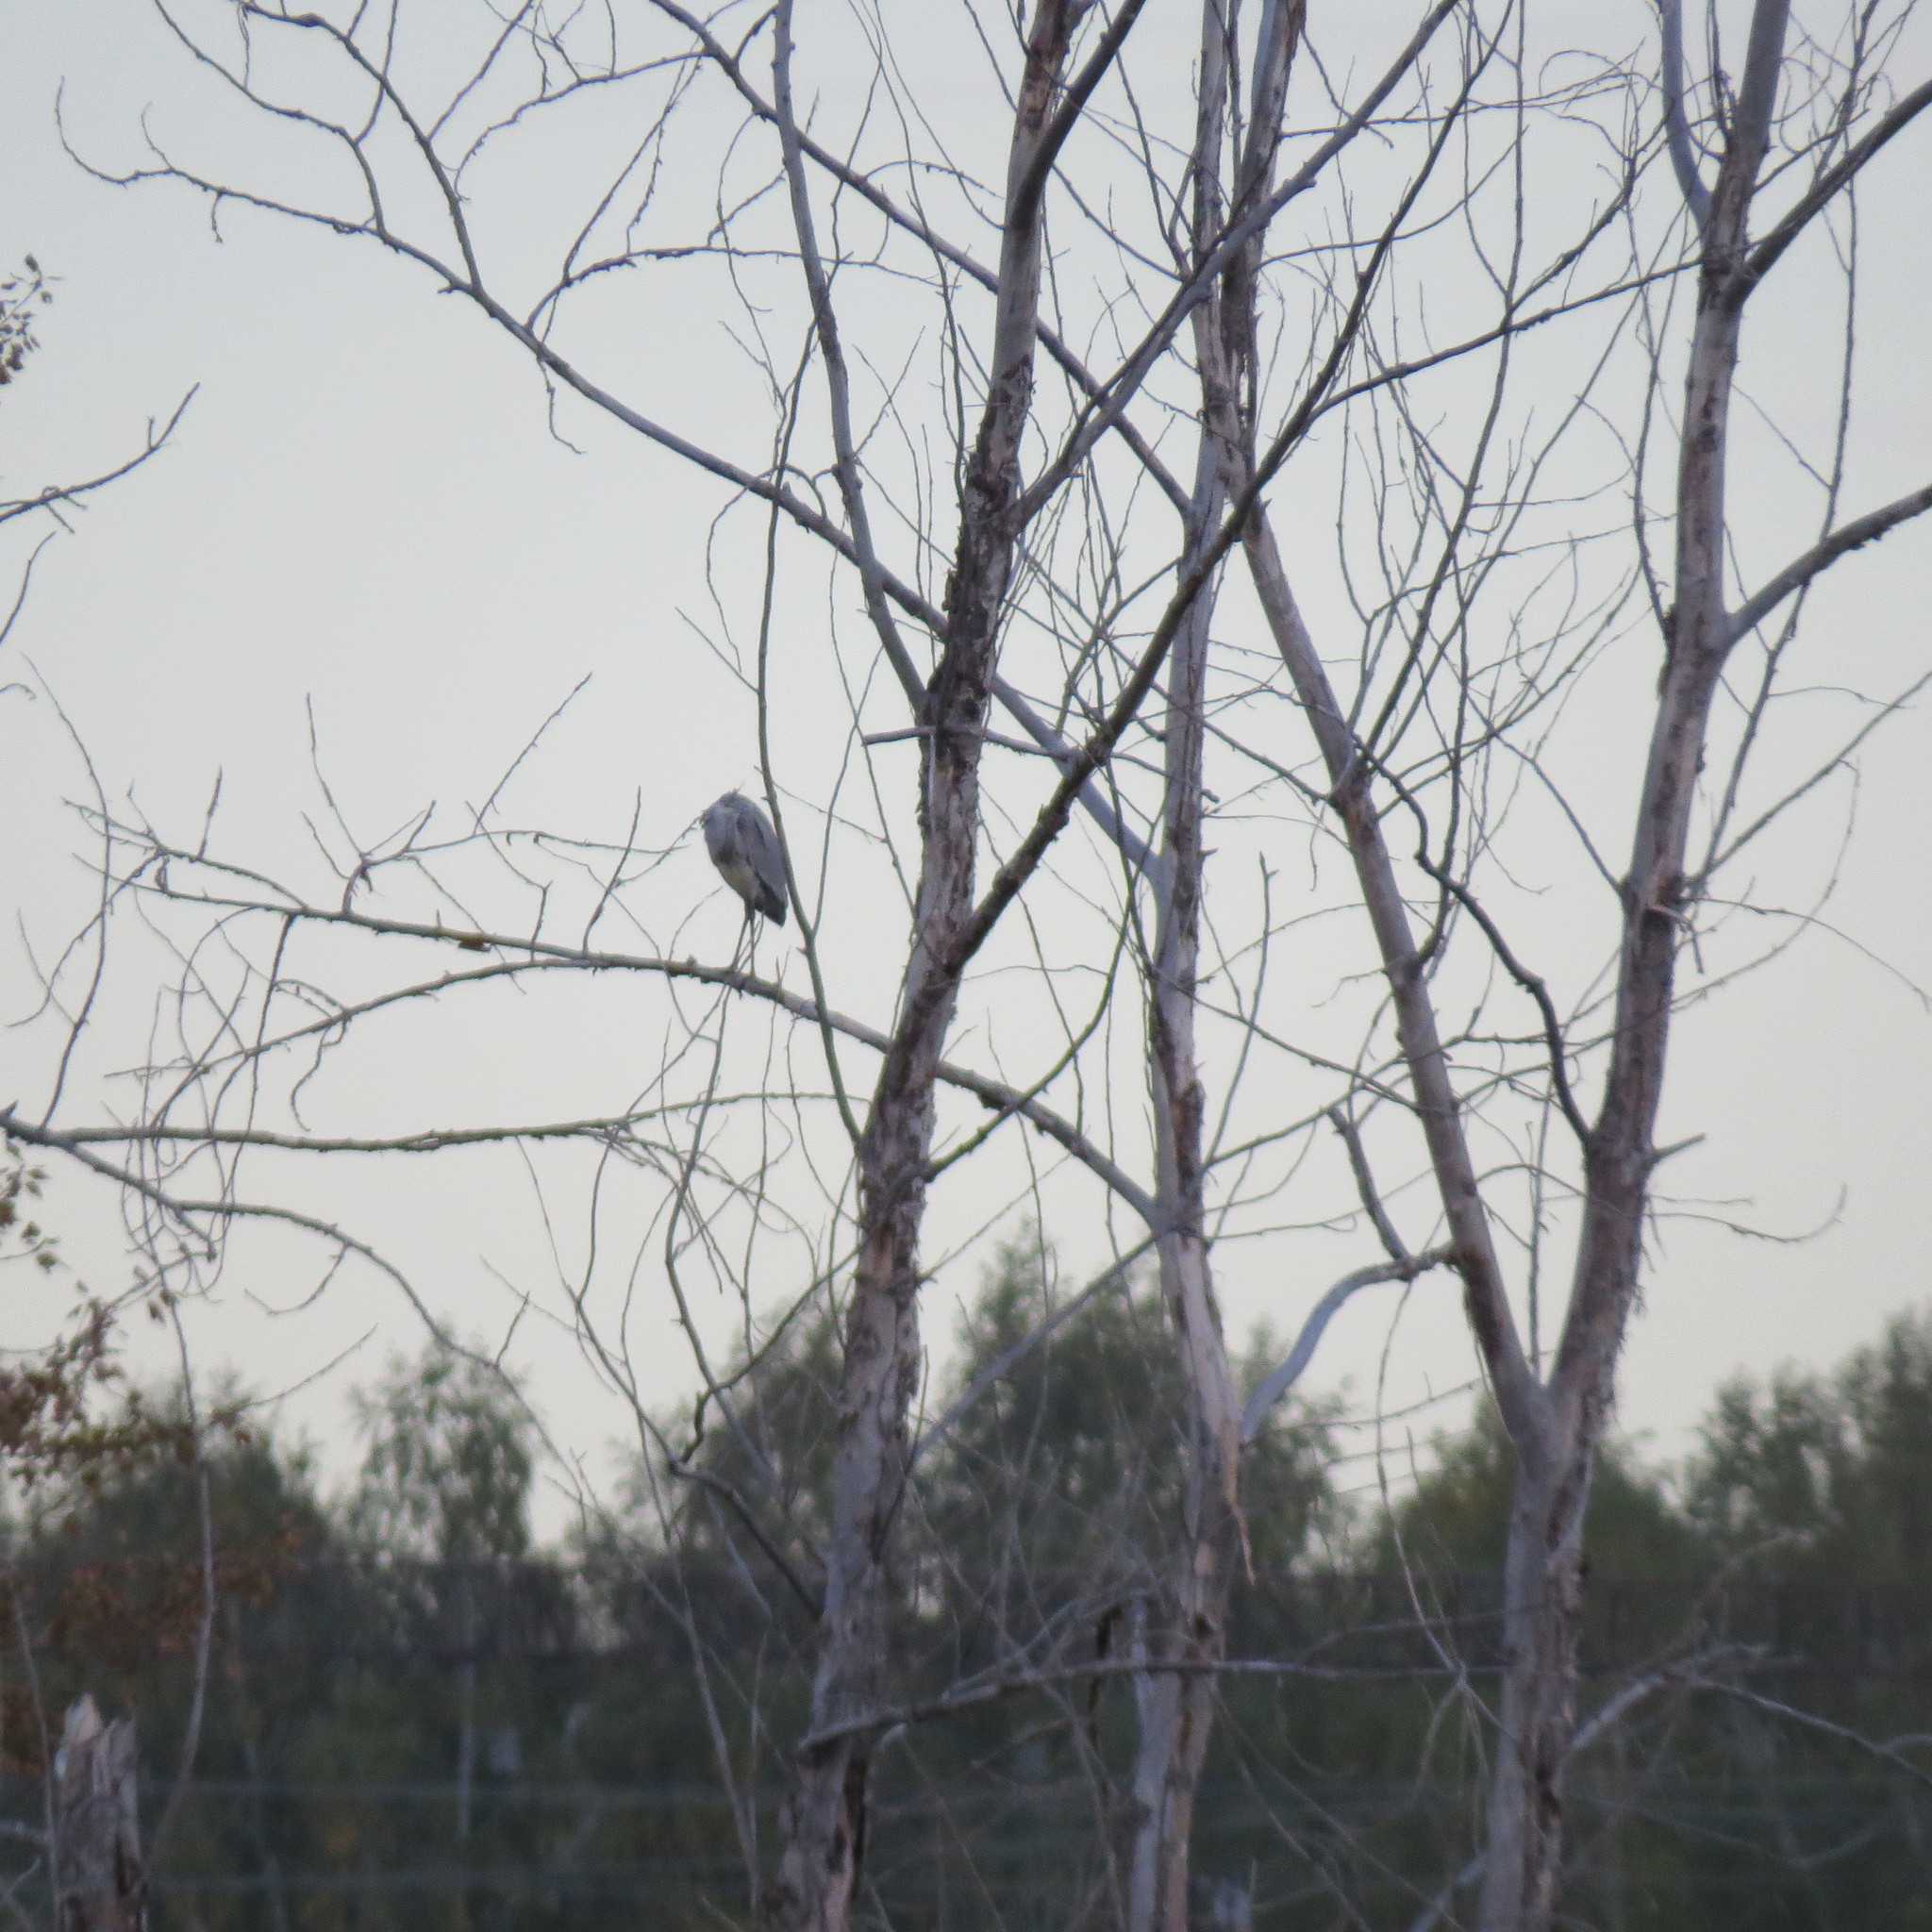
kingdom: Animalia
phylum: Chordata
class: Aves
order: Pelecaniformes
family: Ardeidae
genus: Ardea
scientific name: Ardea cinerea
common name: Grey heron
